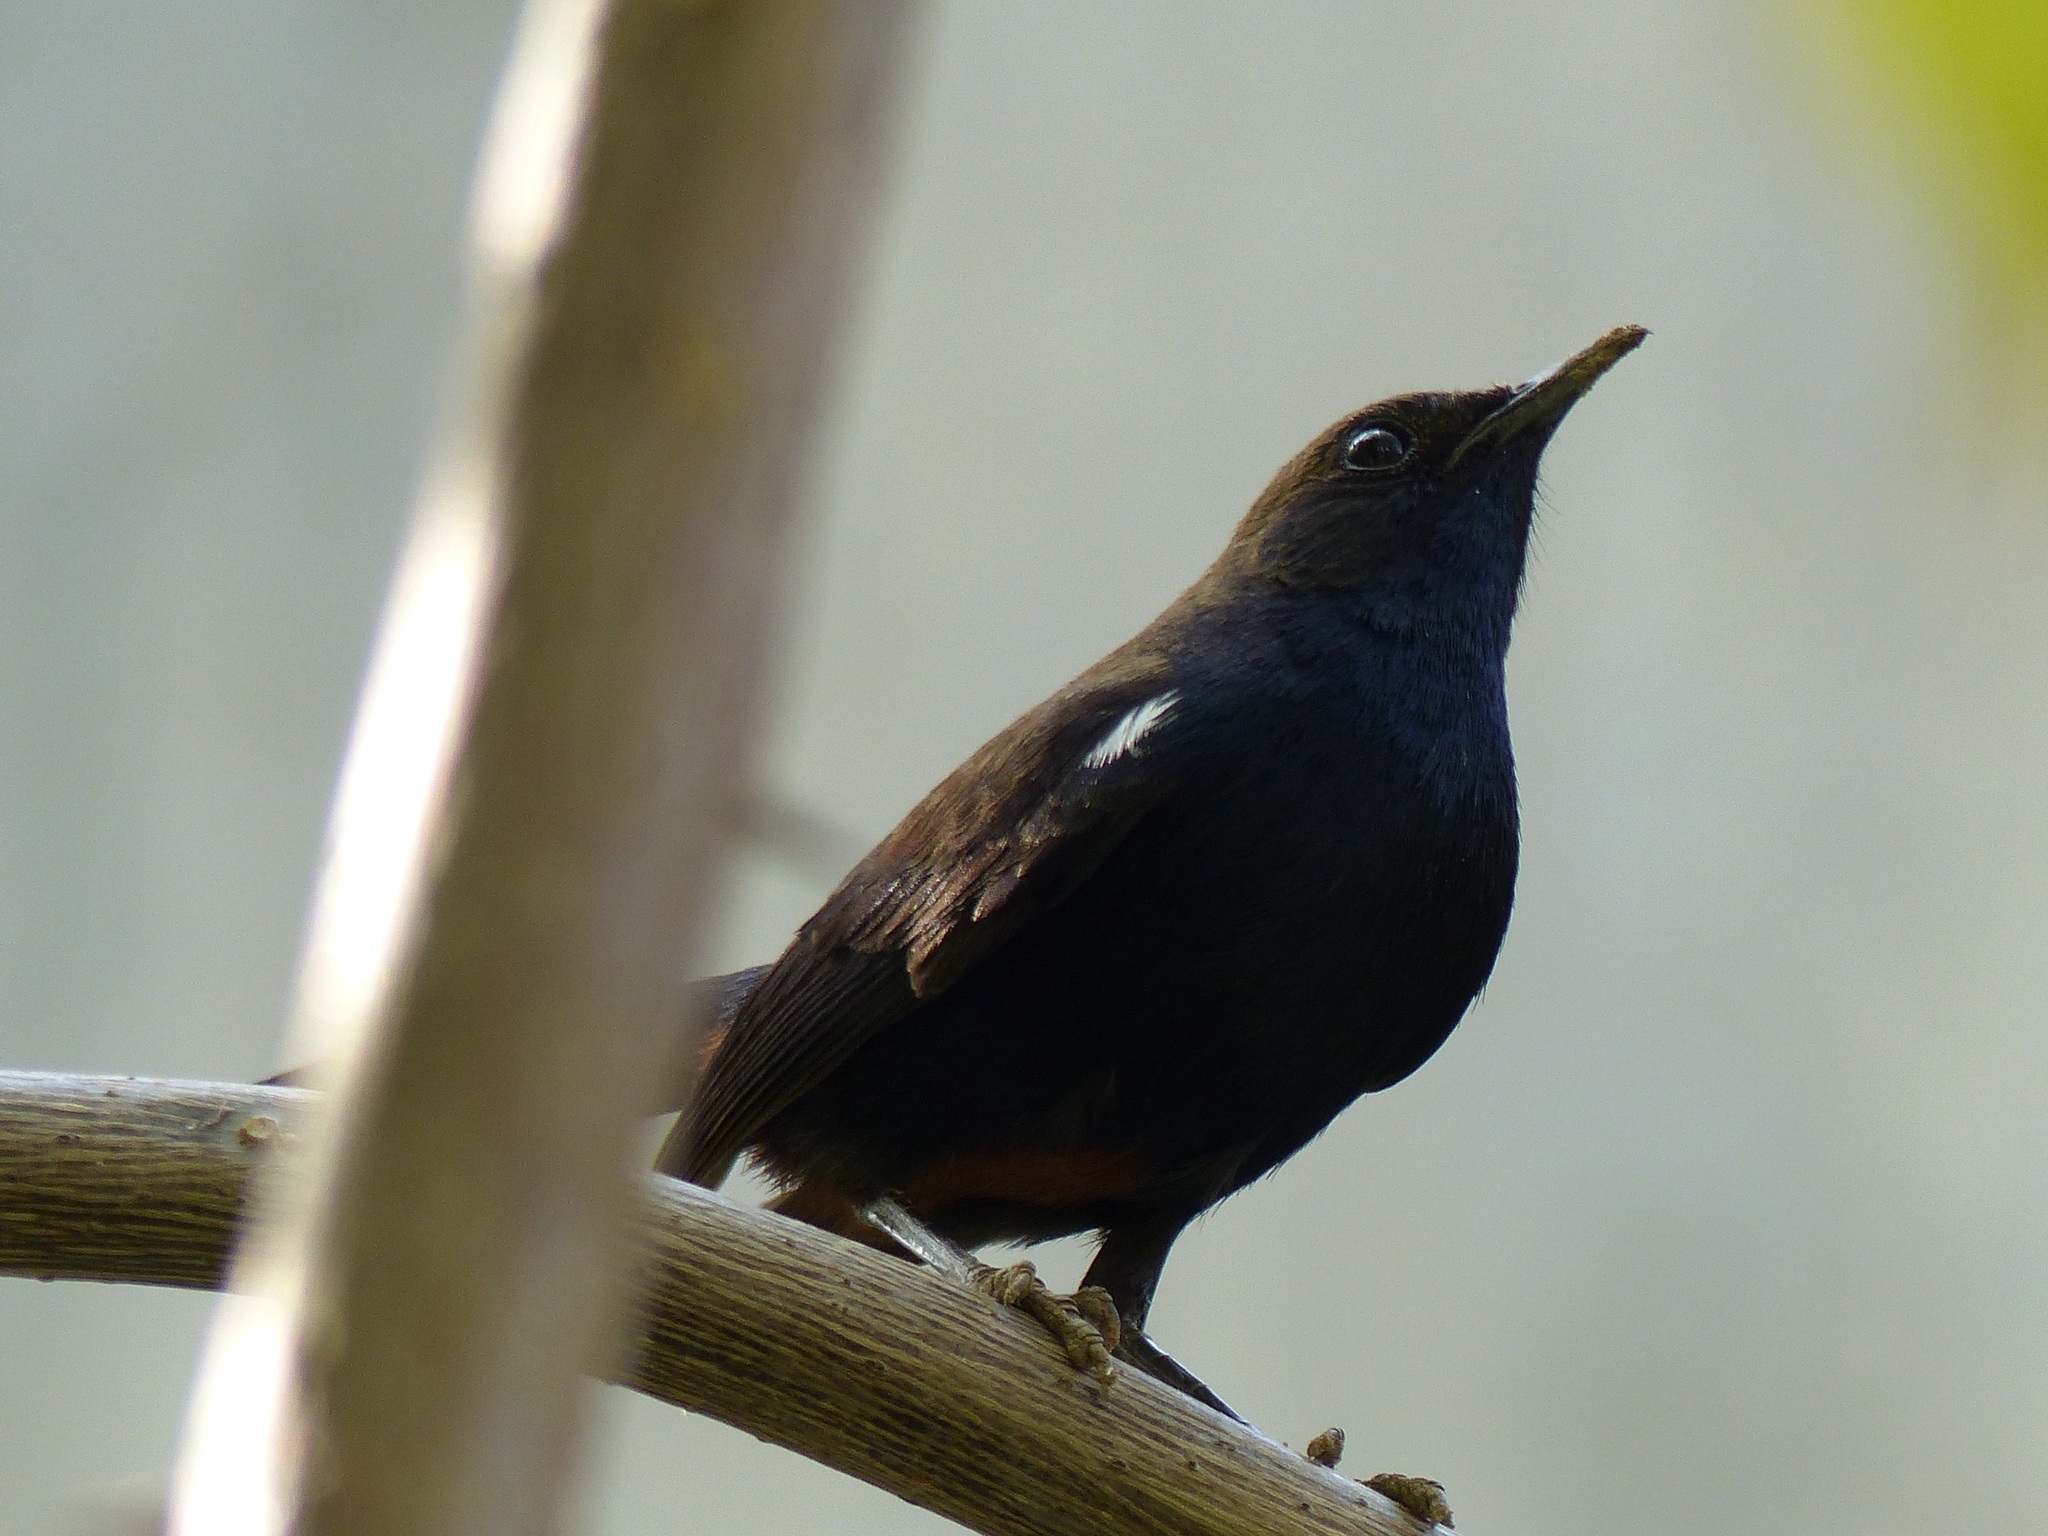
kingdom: Animalia
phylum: Chordata
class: Aves
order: Passeriformes
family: Muscicapidae
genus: Saxicoloides
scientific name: Saxicoloides fulicatus
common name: Indian robin
